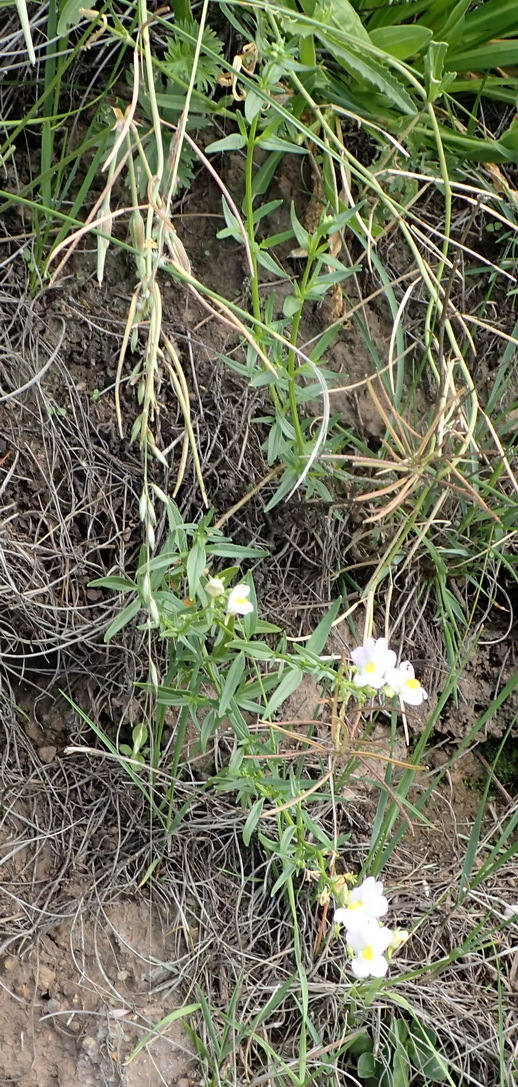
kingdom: Plantae
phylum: Tracheophyta
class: Magnoliopsida
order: Lamiales
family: Scrophulariaceae
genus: Nemesia
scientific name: Nemesia fruticans
